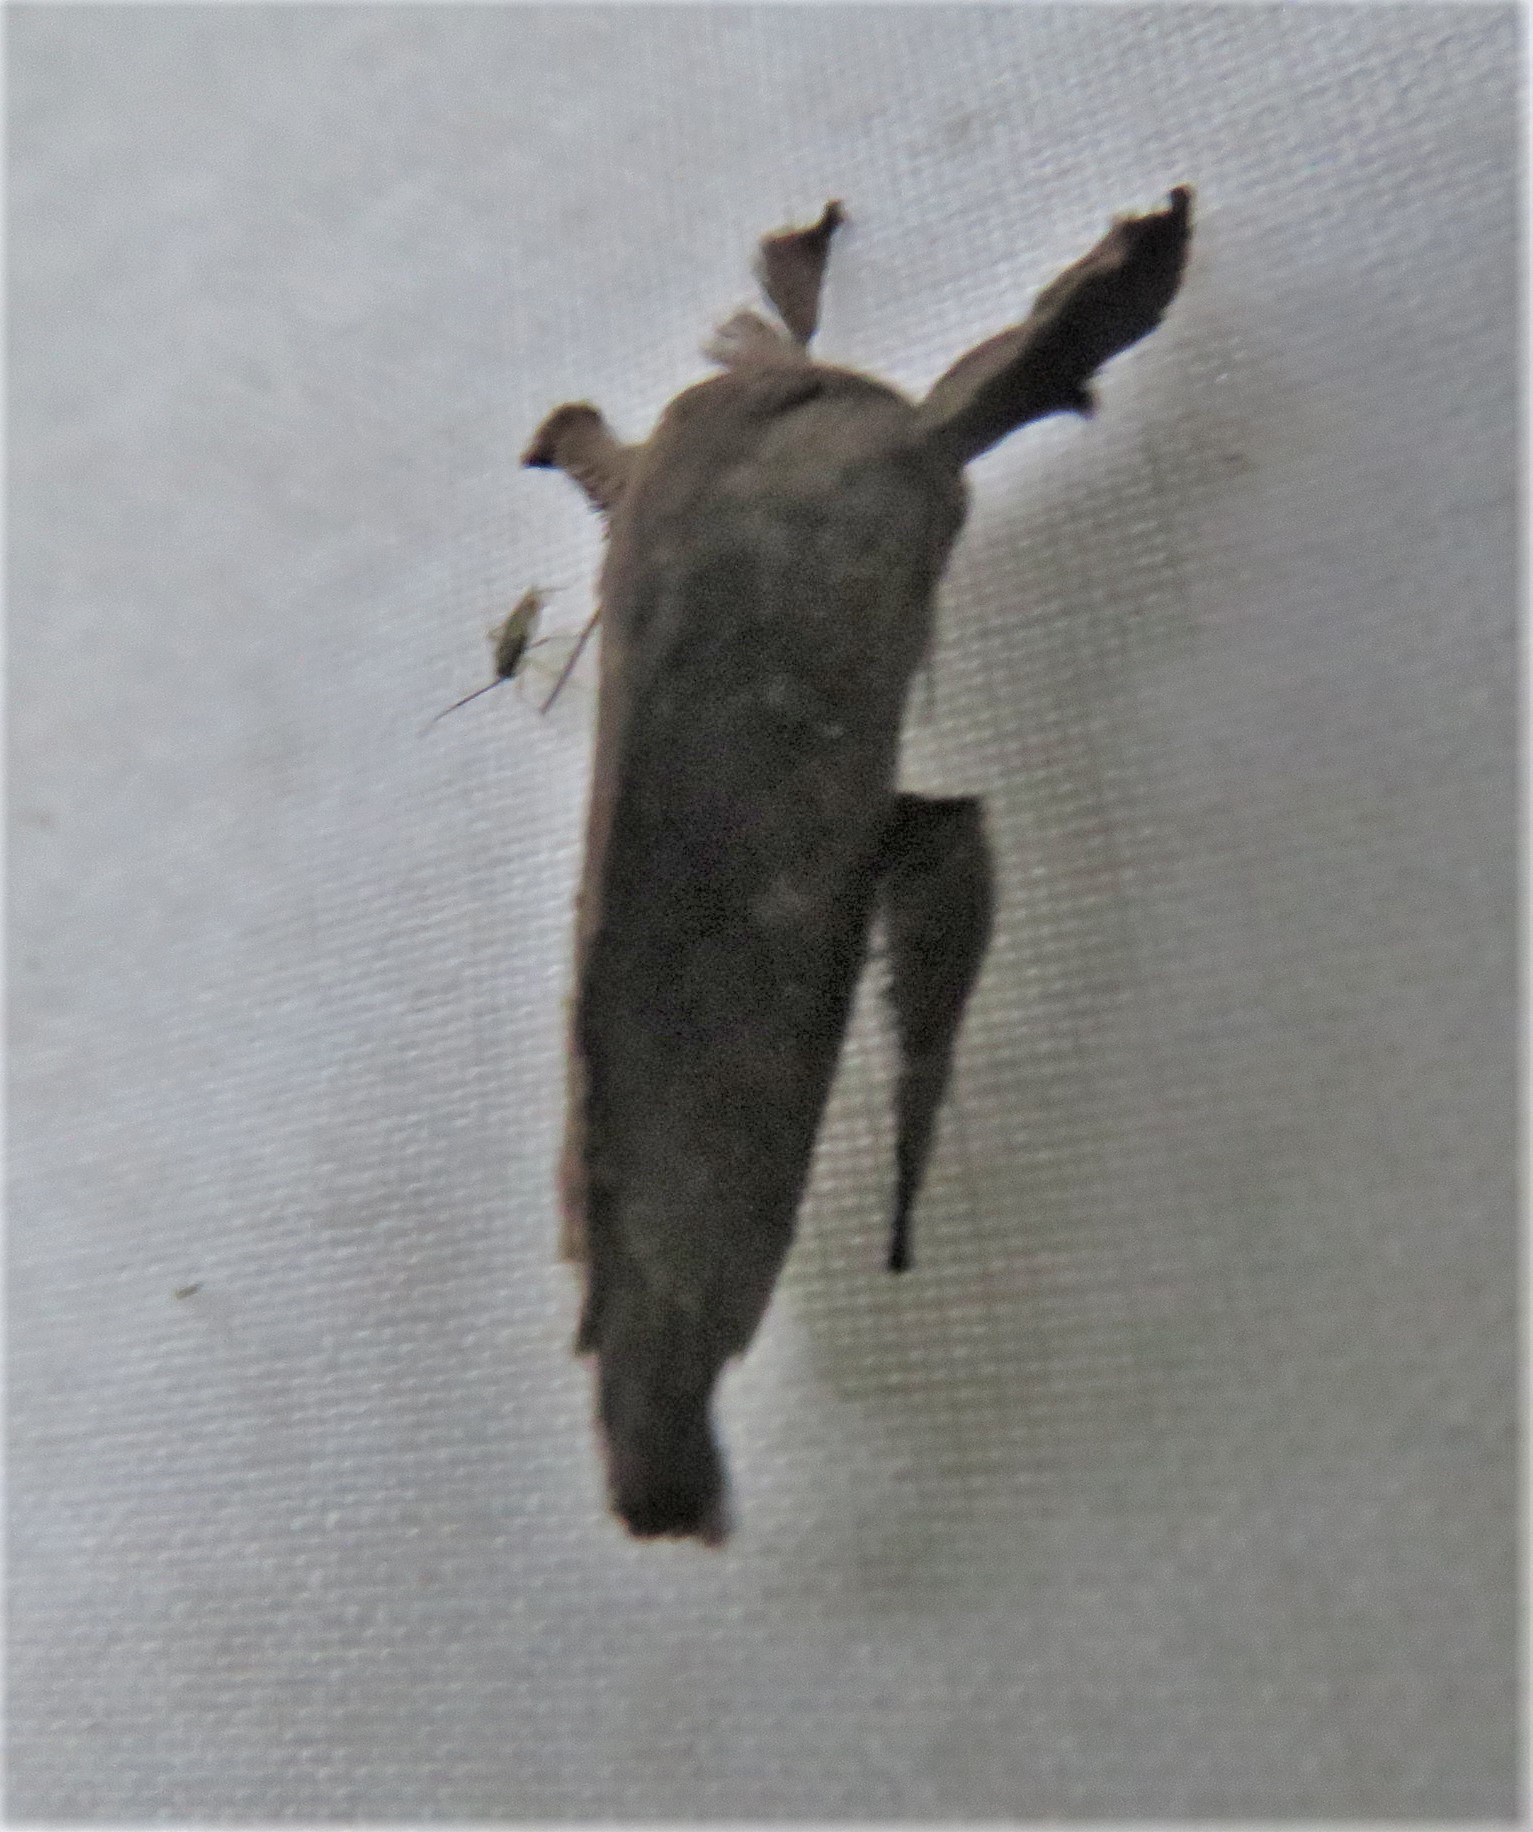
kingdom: Animalia
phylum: Arthropoda
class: Insecta
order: Lepidoptera
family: Limacodidae
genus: Euclea
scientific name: Euclea norba
